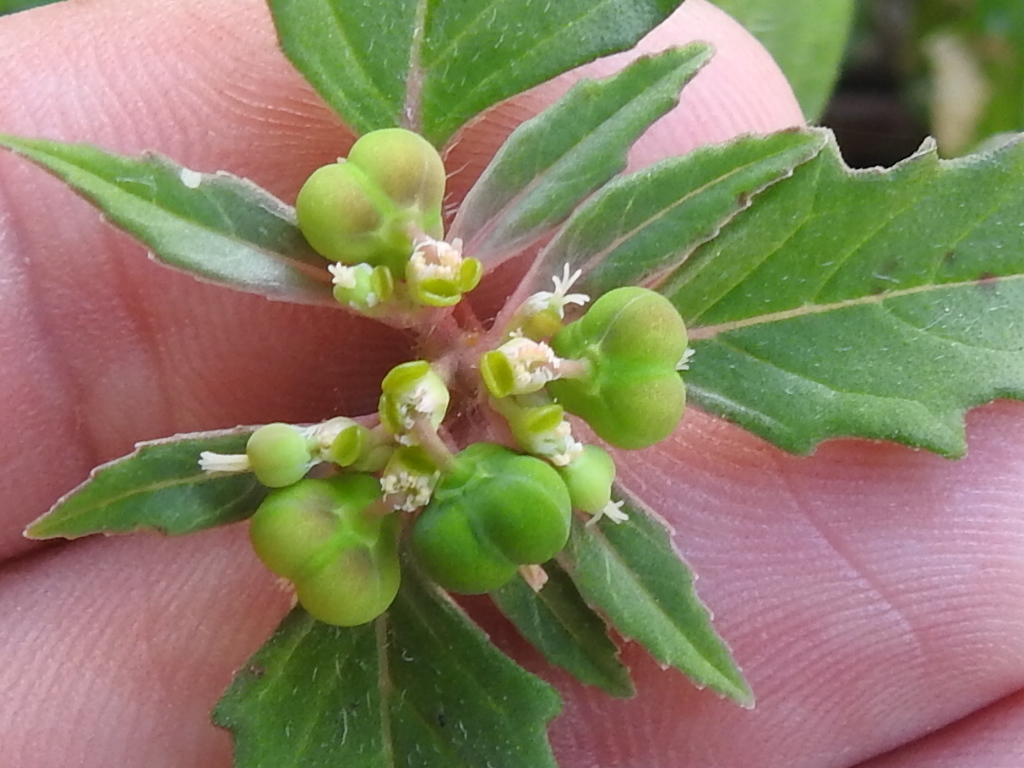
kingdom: Plantae
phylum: Tracheophyta
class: Magnoliopsida
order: Malpighiales
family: Euphorbiaceae
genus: Euphorbia
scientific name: Euphorbia dentata
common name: Dentate spurge
